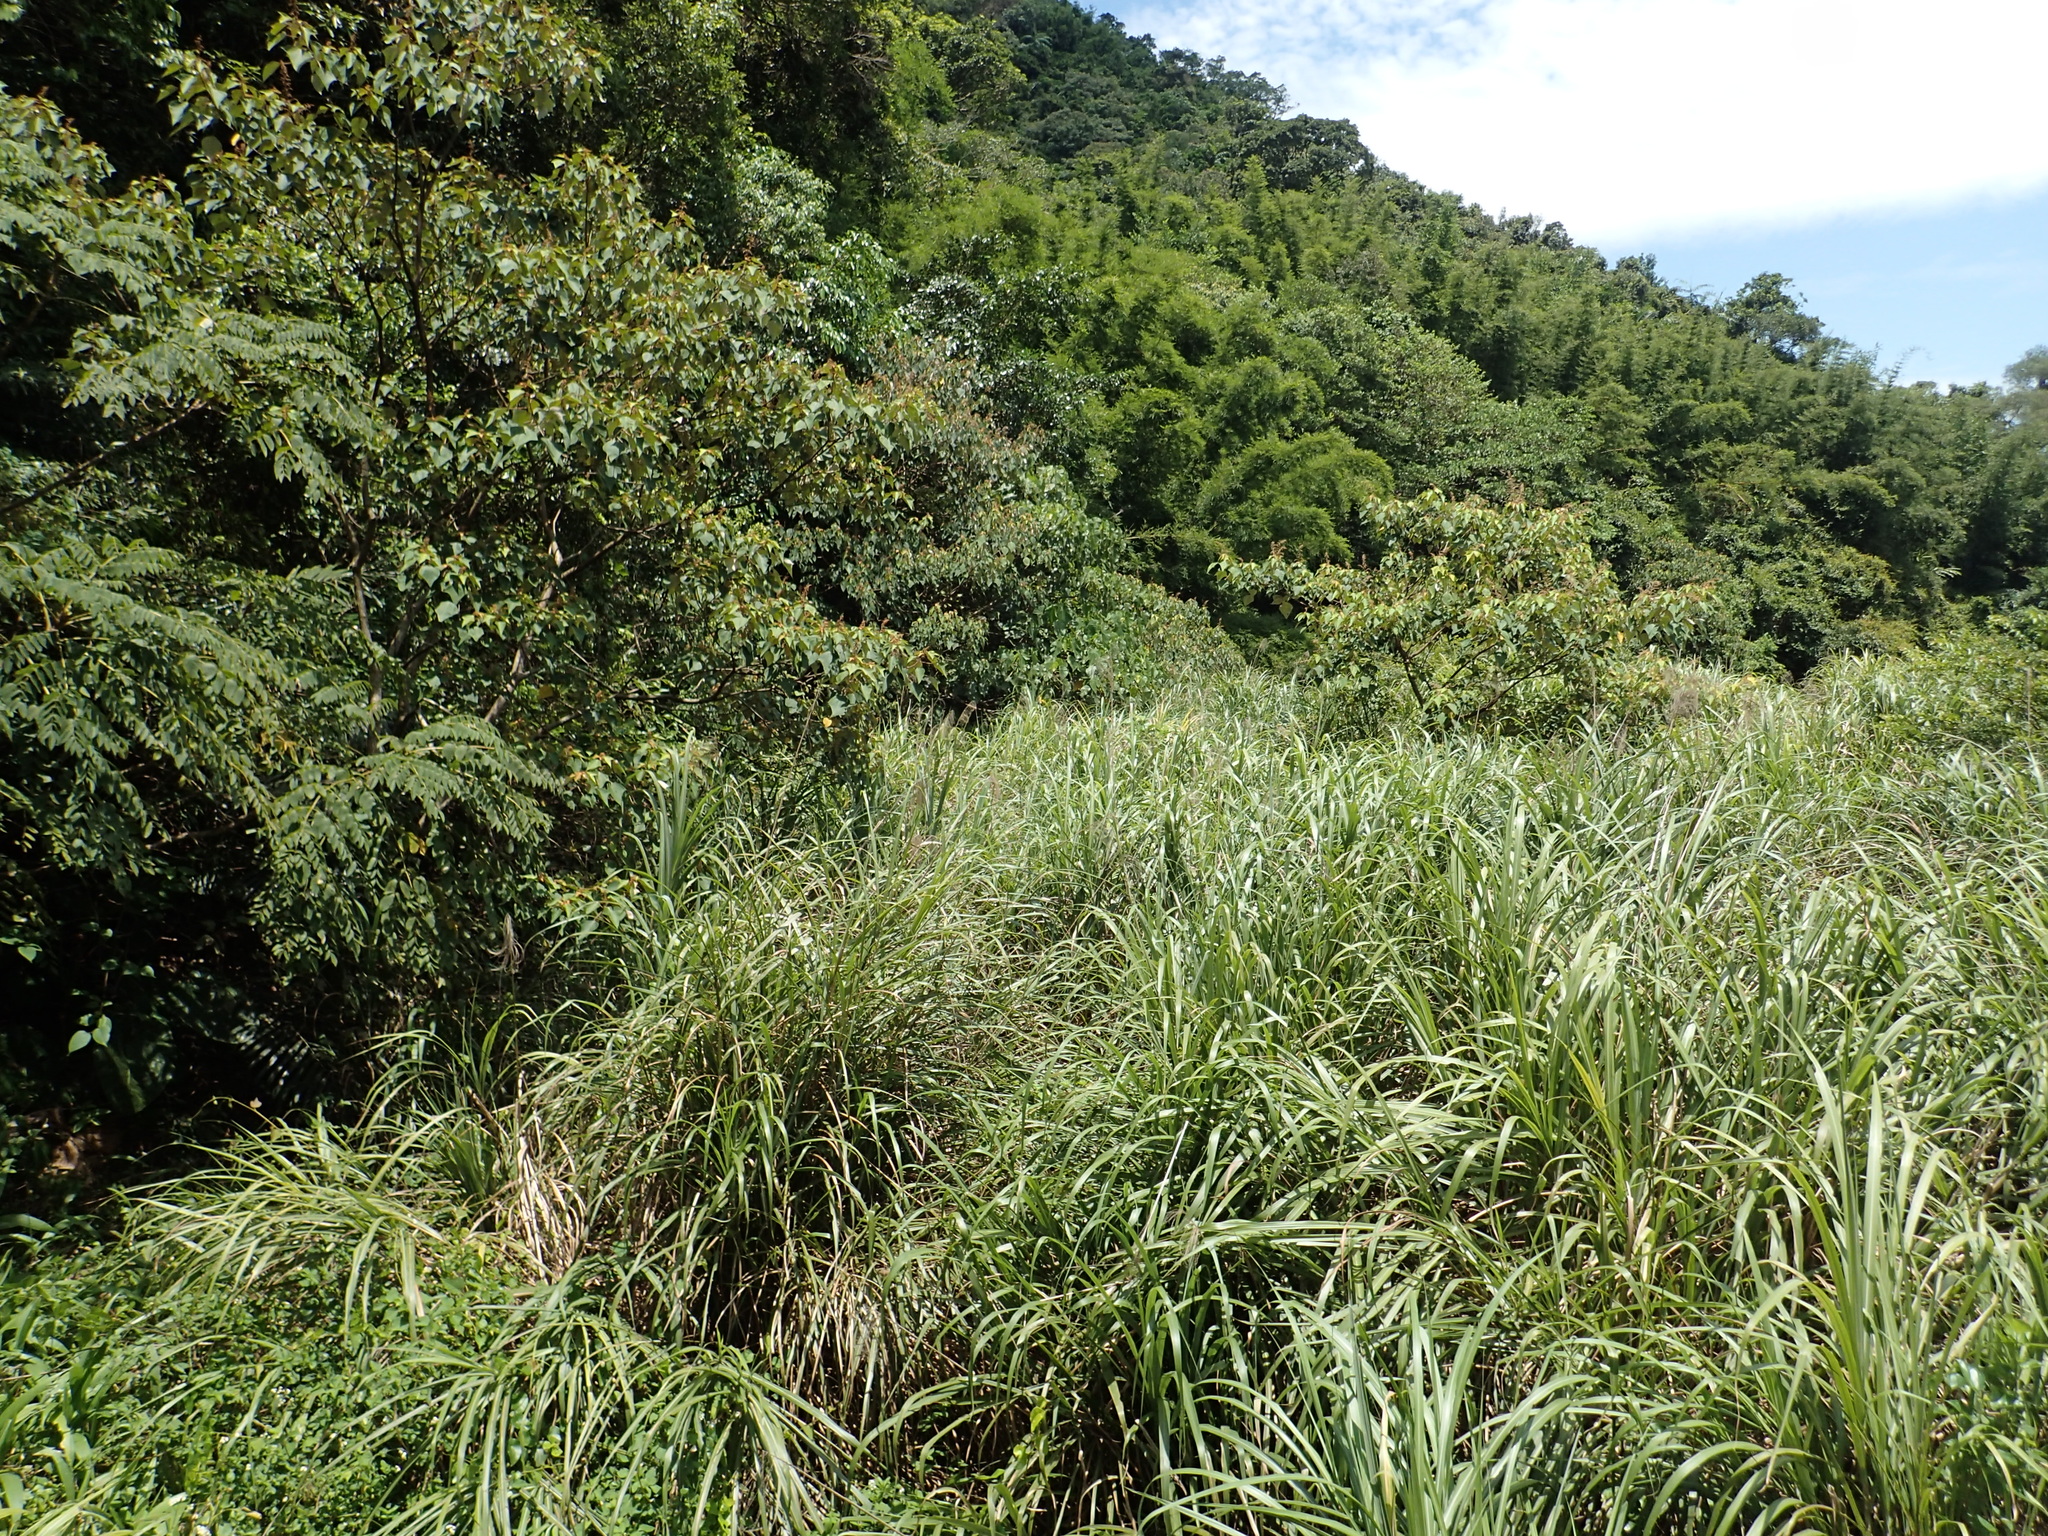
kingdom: Plantae
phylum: Tracheophyta
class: Liliopsida
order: Poales
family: Poaceae
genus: Miscanthus
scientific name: Miscanthus sinensis
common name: Chinese silvergrass
